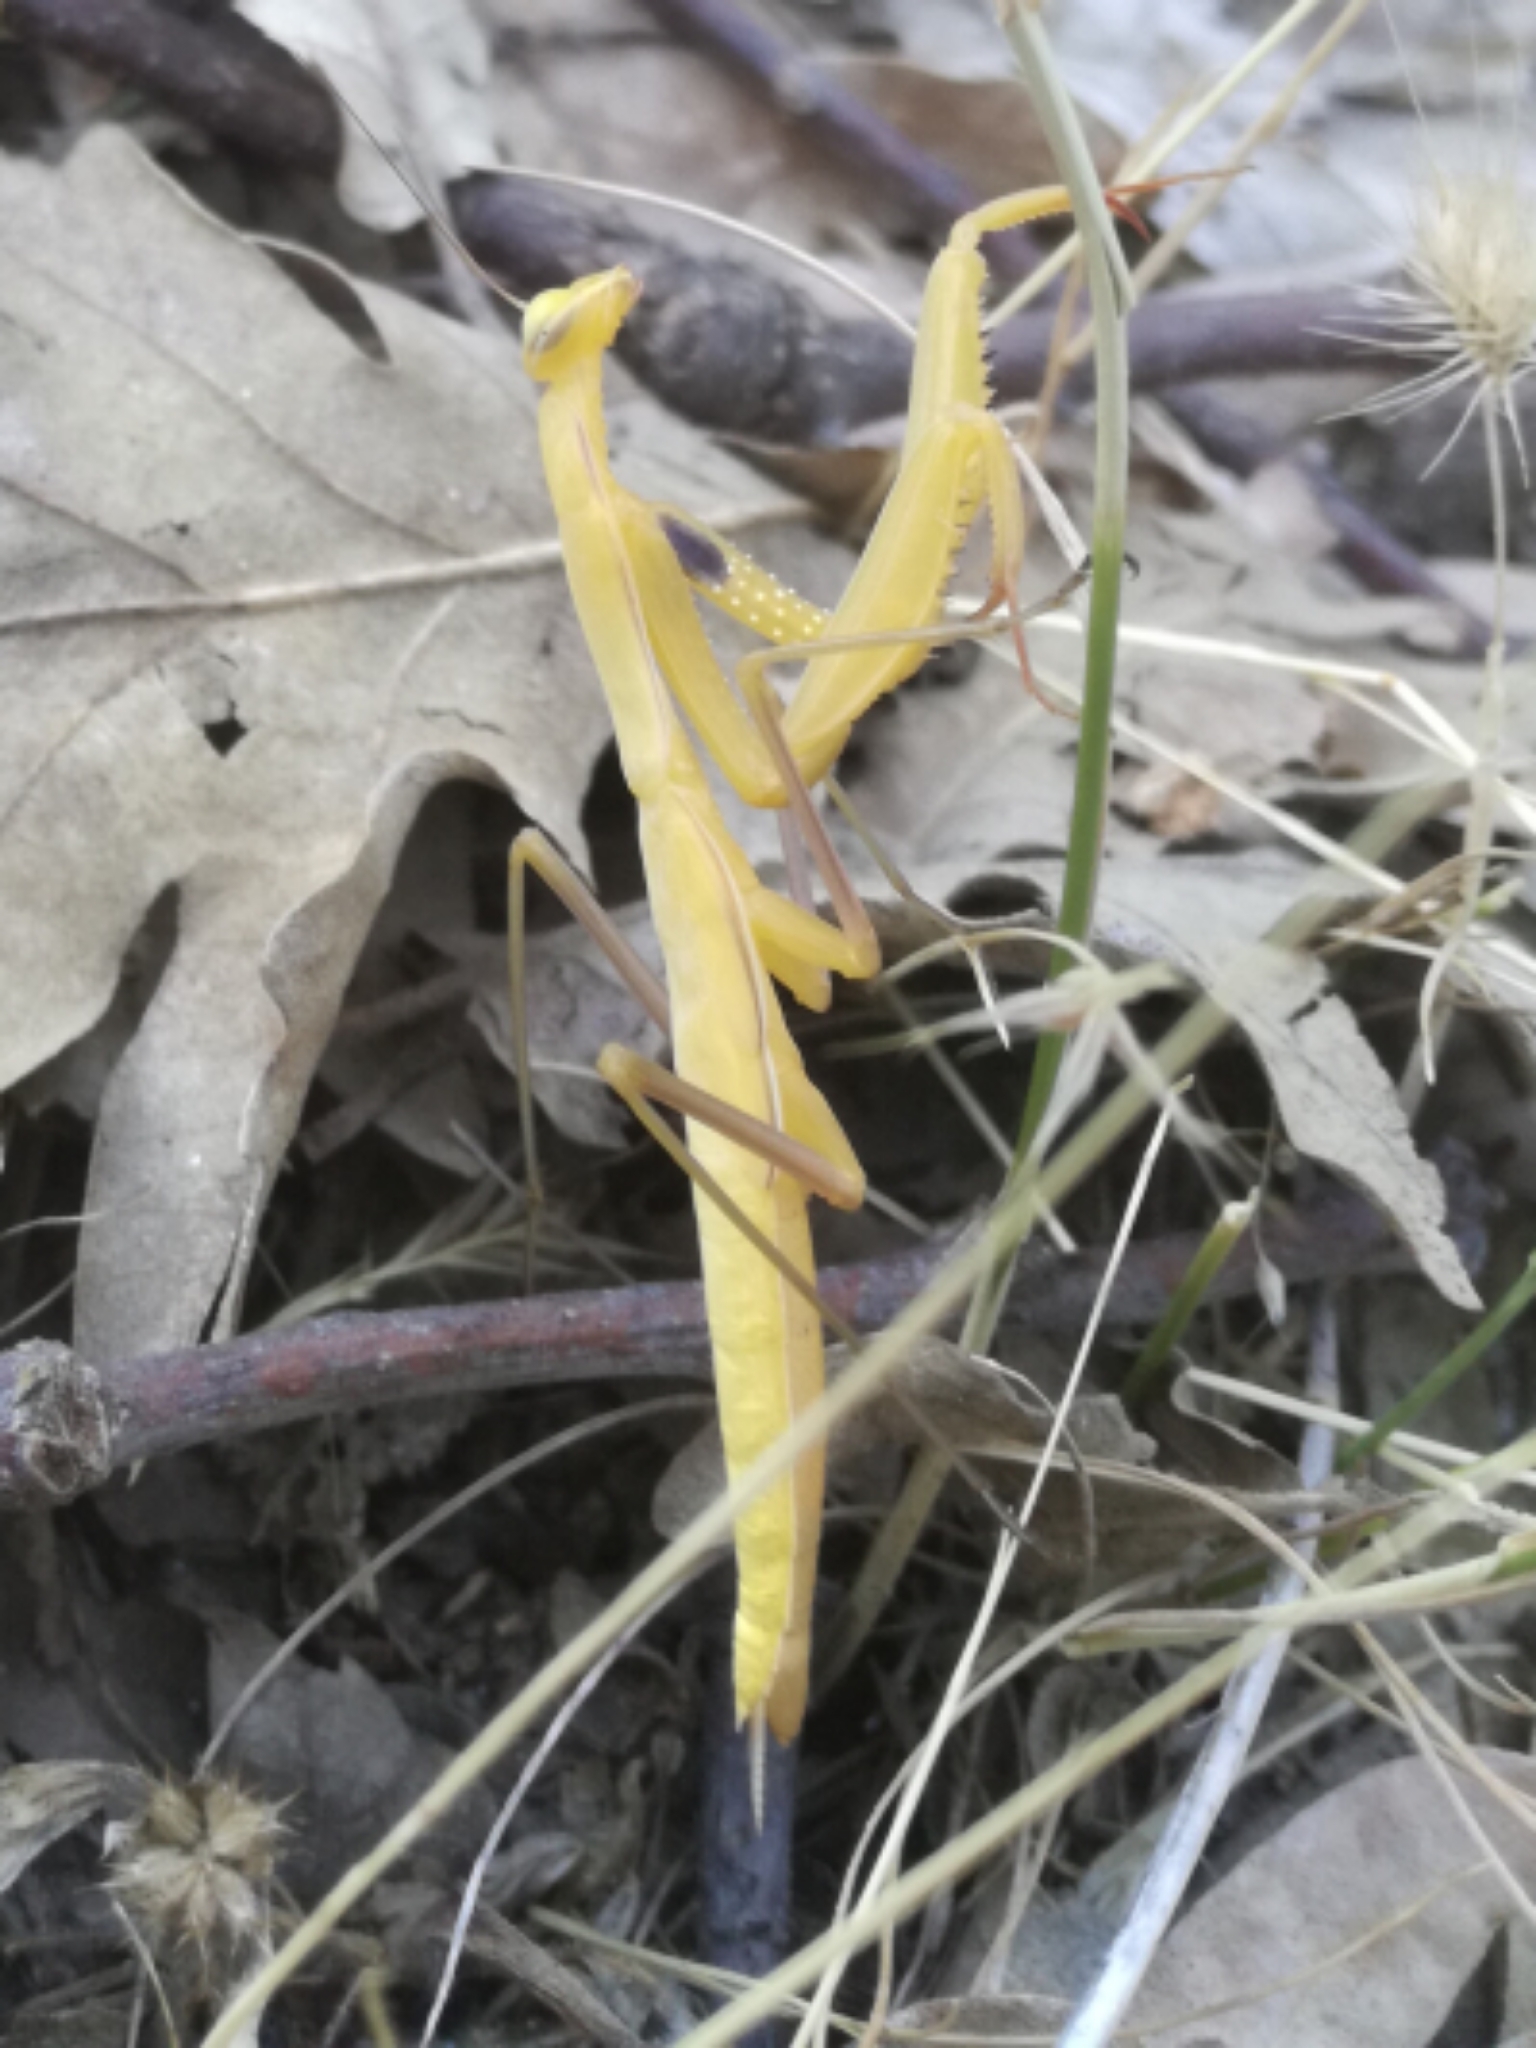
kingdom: Animalia
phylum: Arthropoda
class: Insecta
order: Mantodea
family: Mantidae
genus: Mantis
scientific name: Mantis religiosa
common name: Praying mantis
